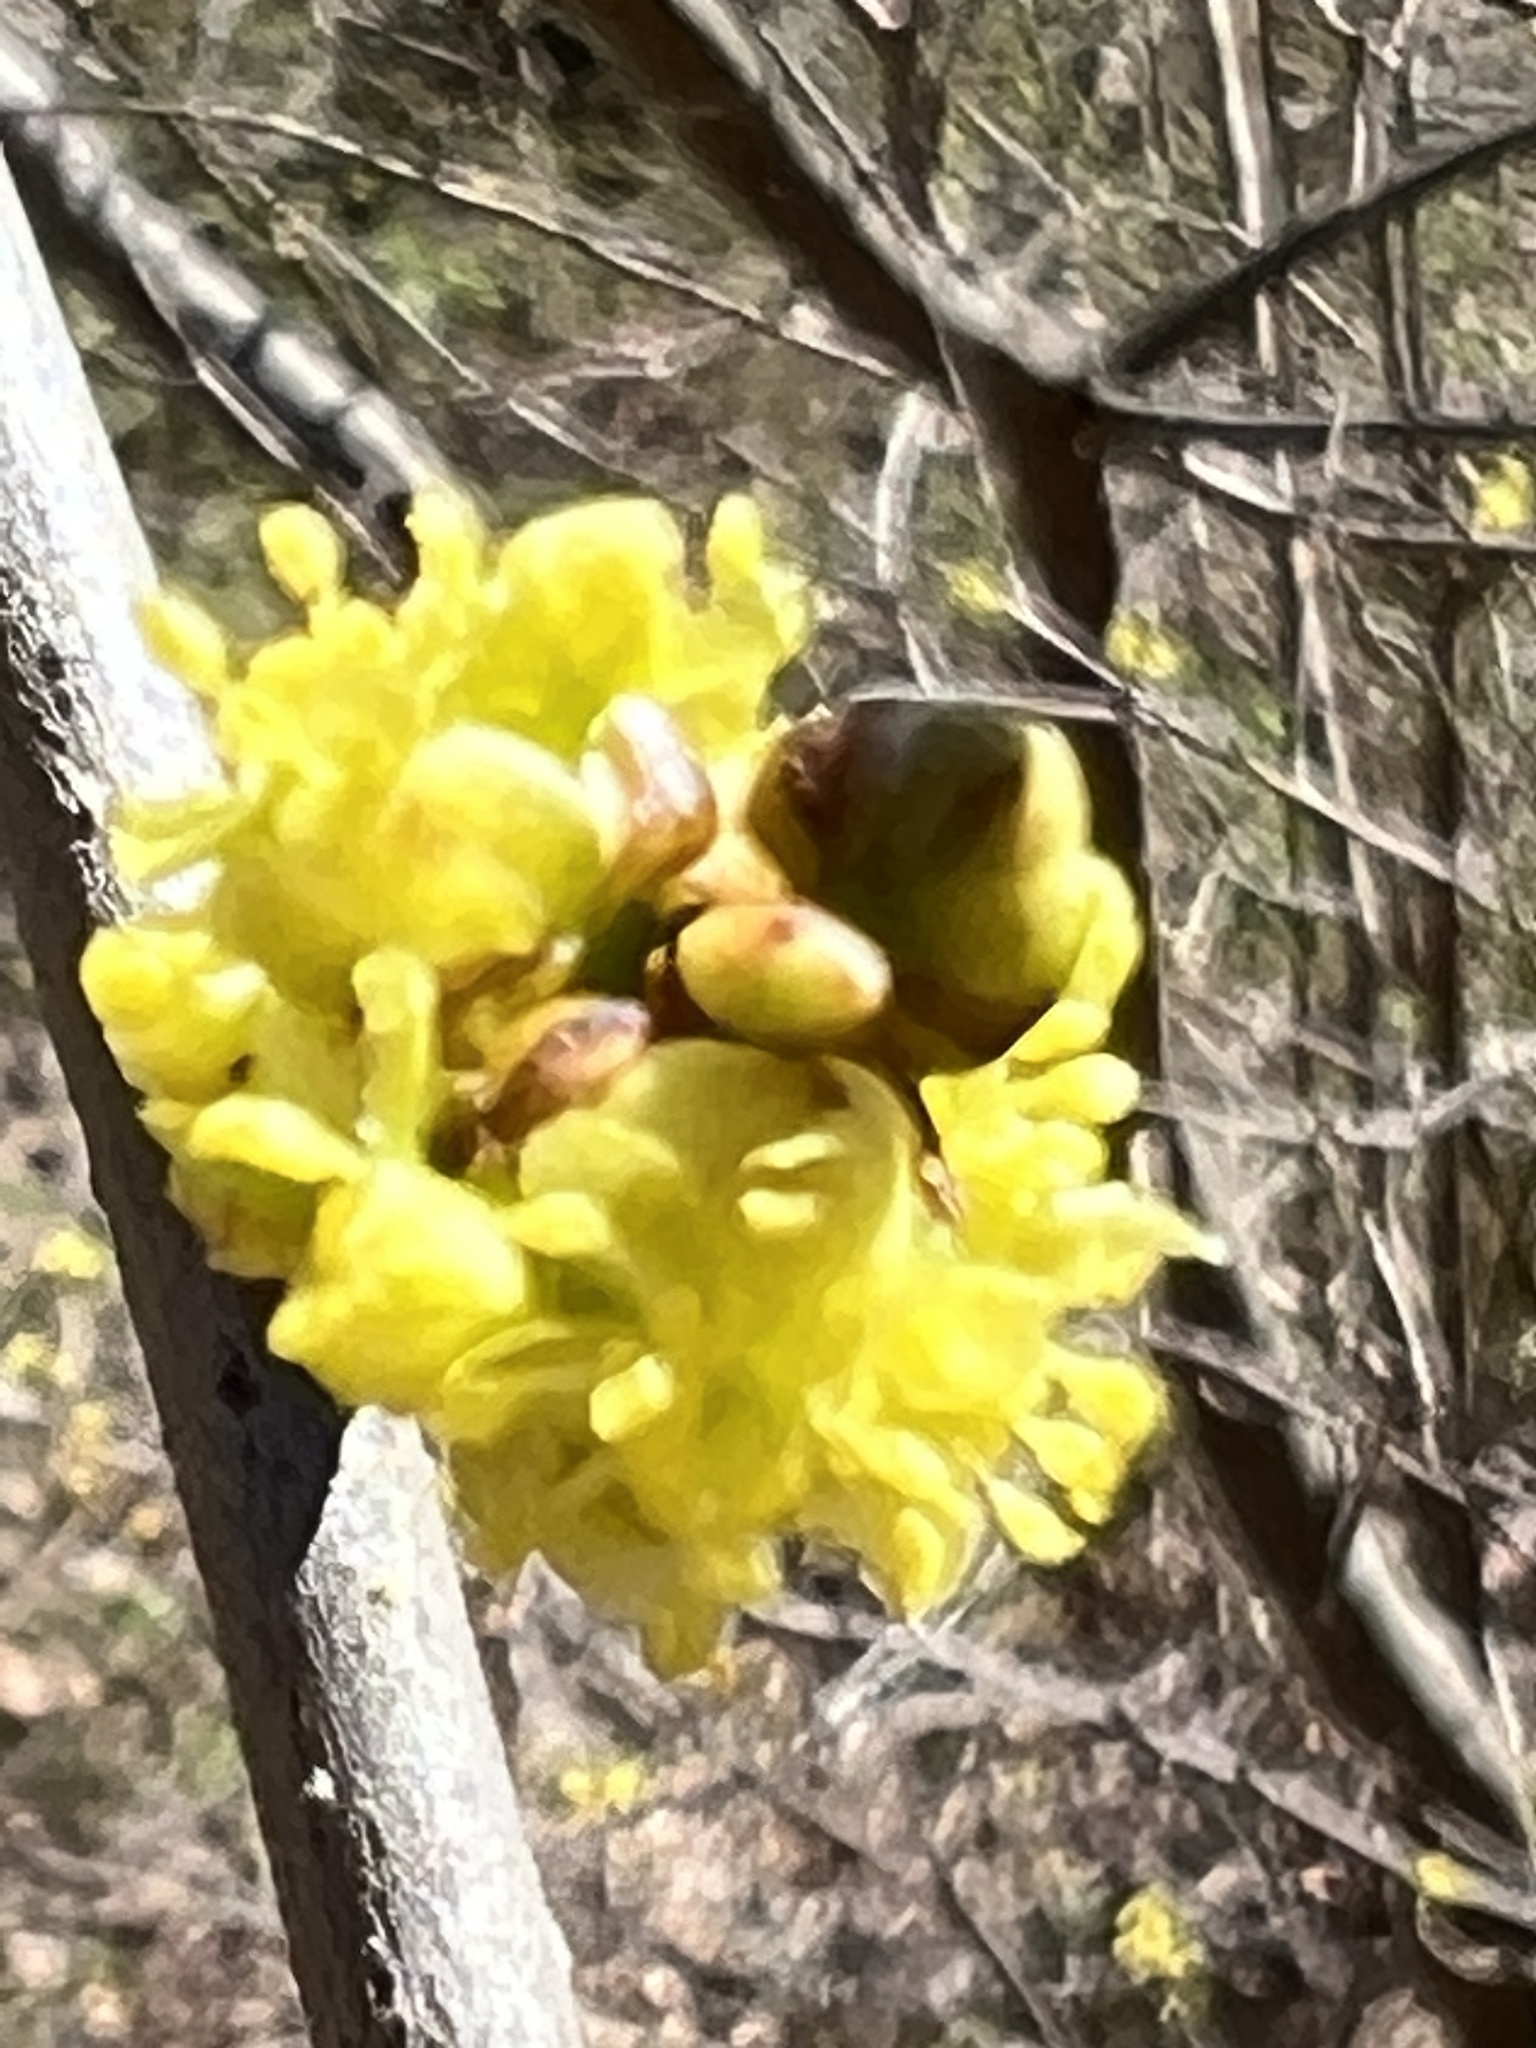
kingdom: Plantae
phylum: Tracheophyta
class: Magnoliopsida
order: Laurales
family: Lauraceae
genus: Lindera
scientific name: Lindera benzoin
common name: Spicebush
